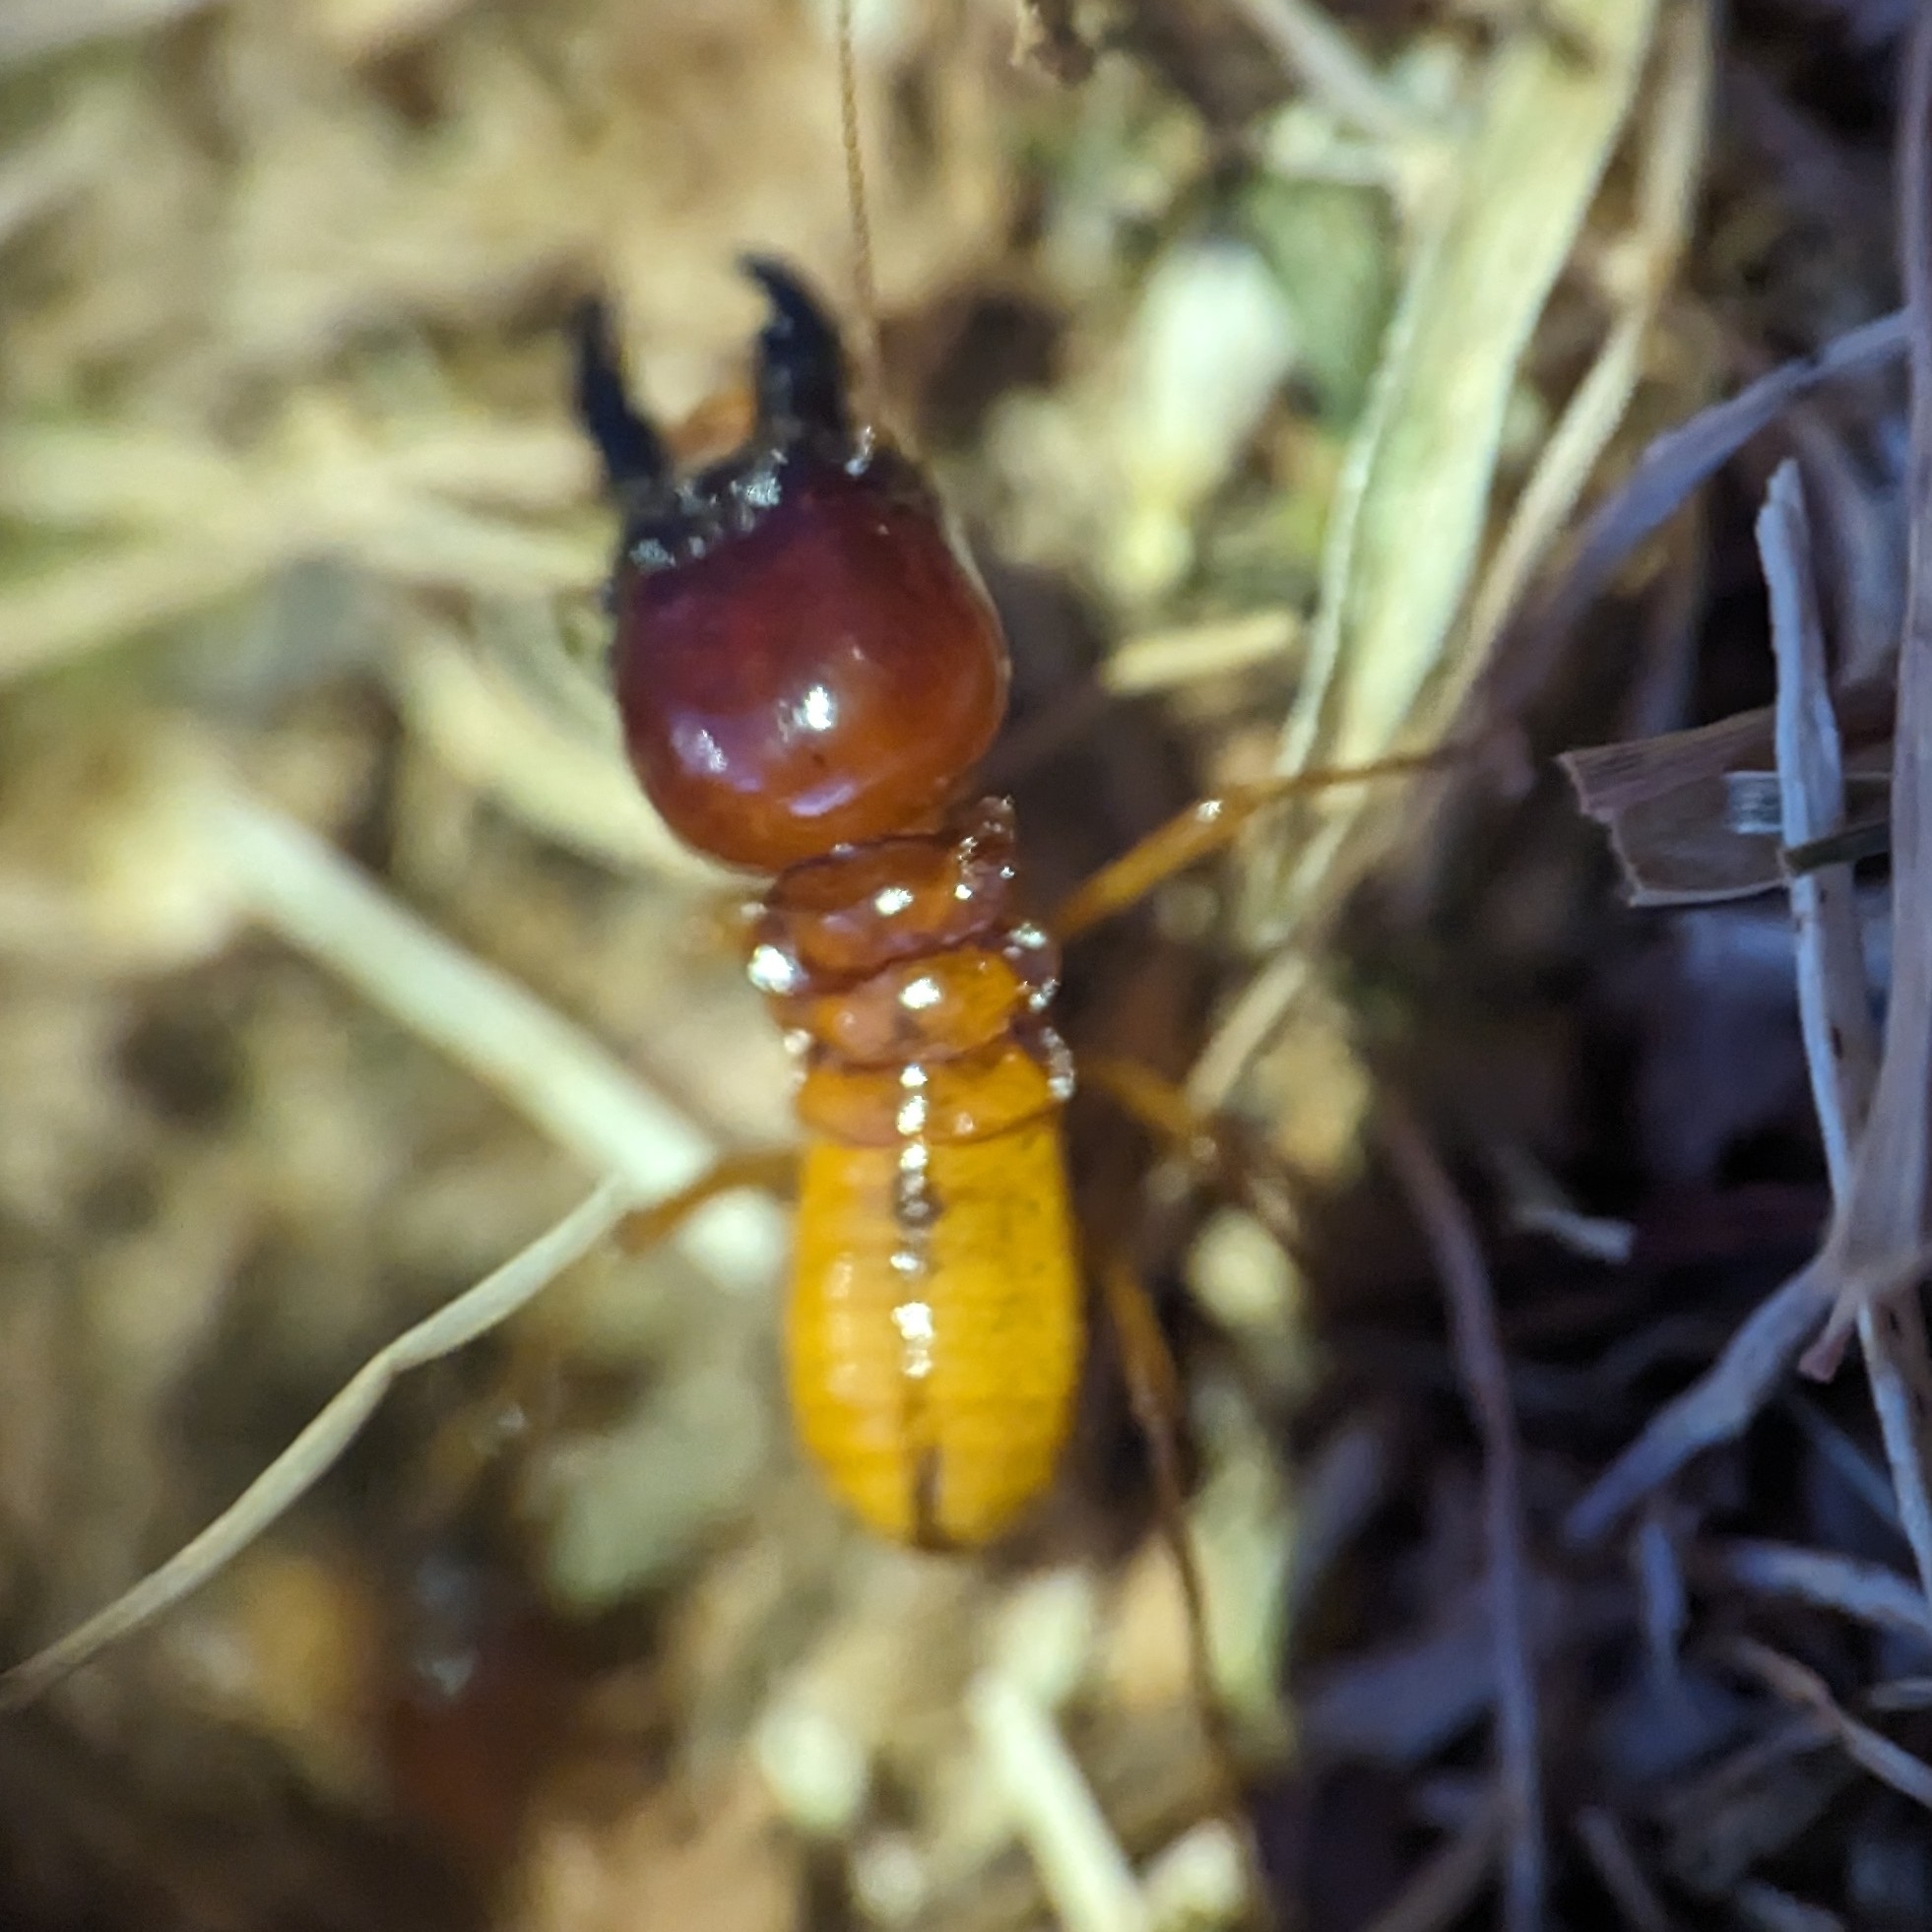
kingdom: Animalia
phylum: Arthropoda
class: Insecta
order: Blattodea
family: Hodotermitidae
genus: Microhodotermes
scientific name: Microhodotermes viator
